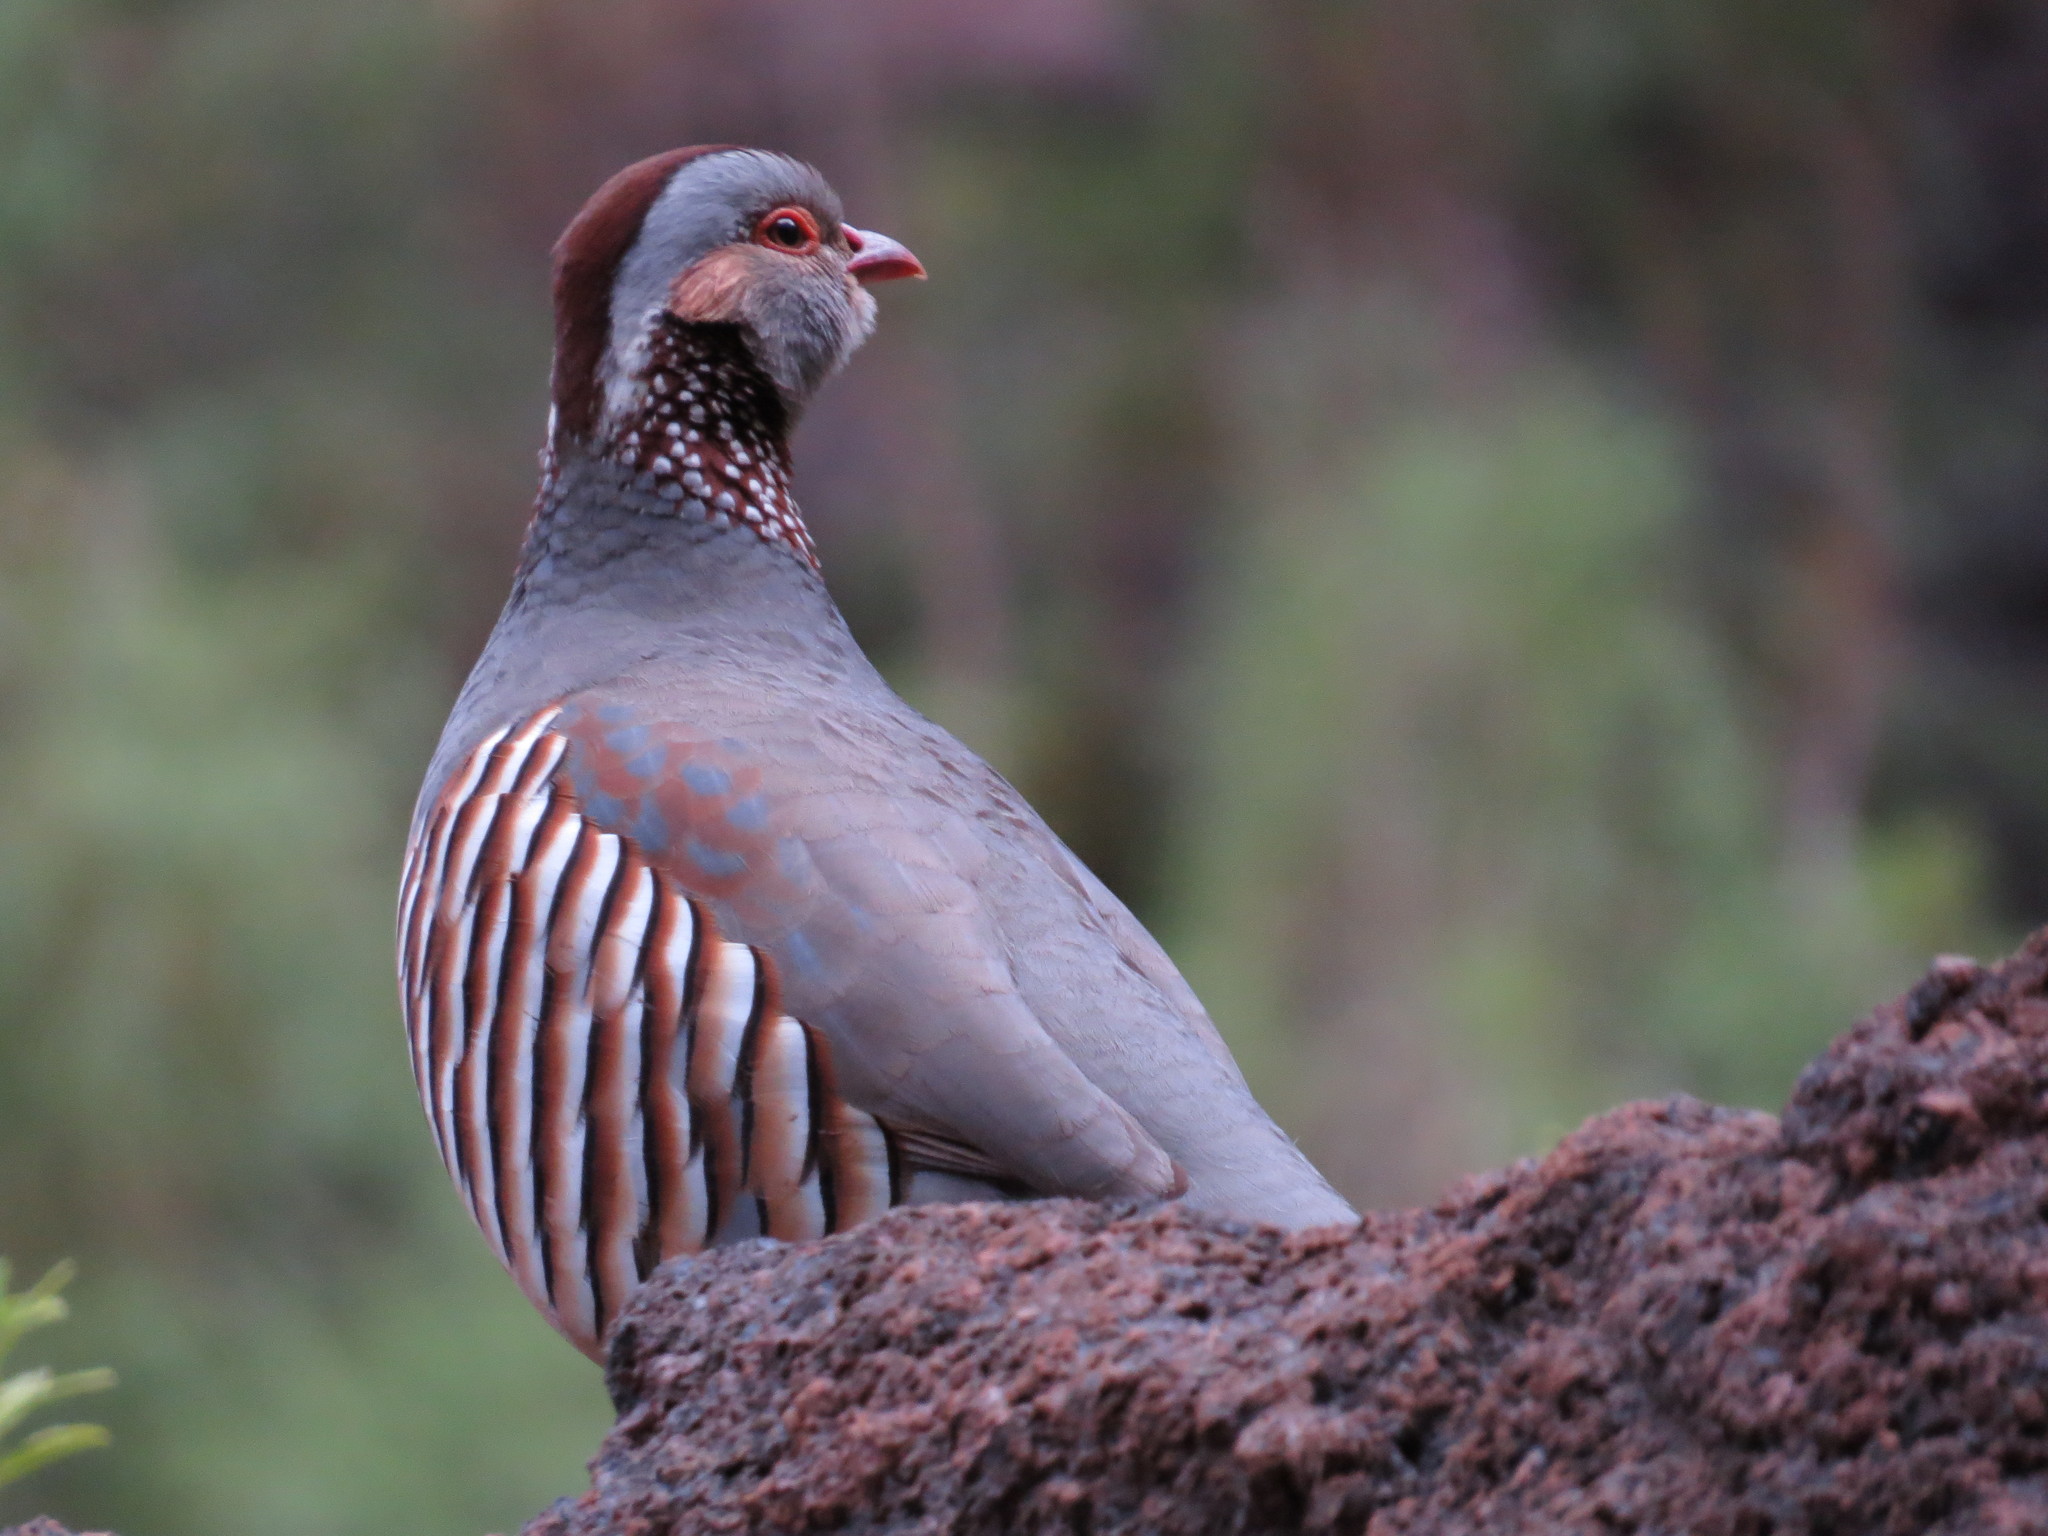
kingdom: Animalia
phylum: Chordata
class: Aves
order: Galliformes
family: Phasianidae
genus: Alectoris
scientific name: Alectoris barbara
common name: Barbary partridge
